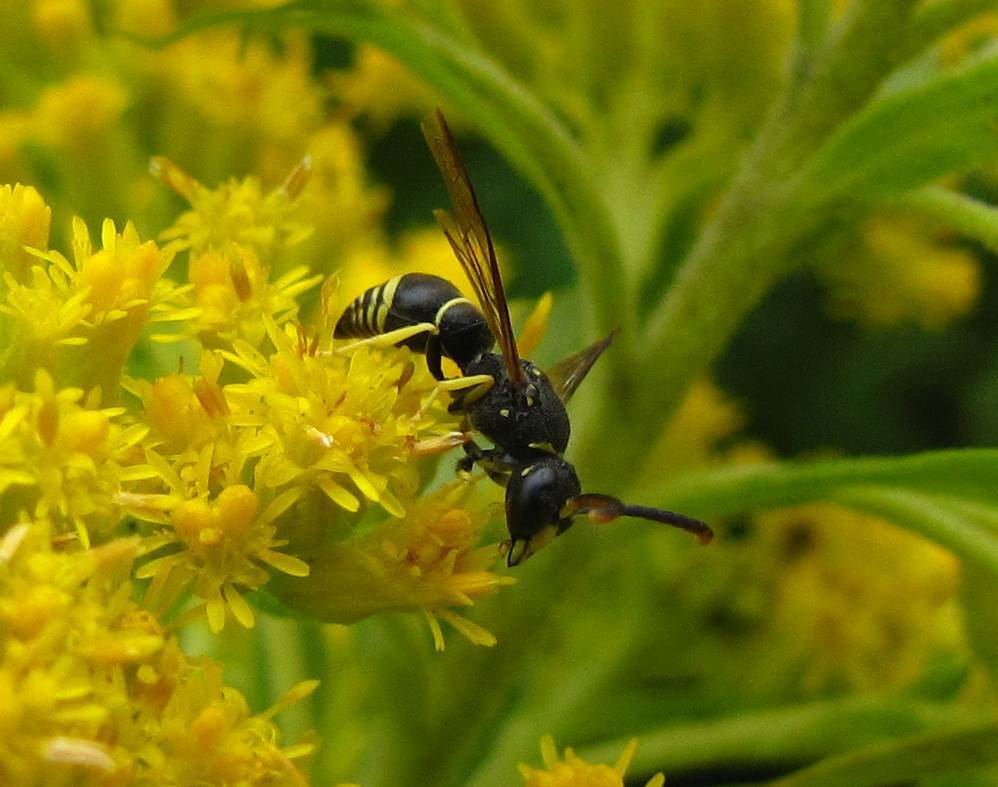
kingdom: Animalia
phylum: Arthropoda
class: Insecta
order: Hymenoptera
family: Vespidae
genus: Ancistrocerus
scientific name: Ancistrocerus
